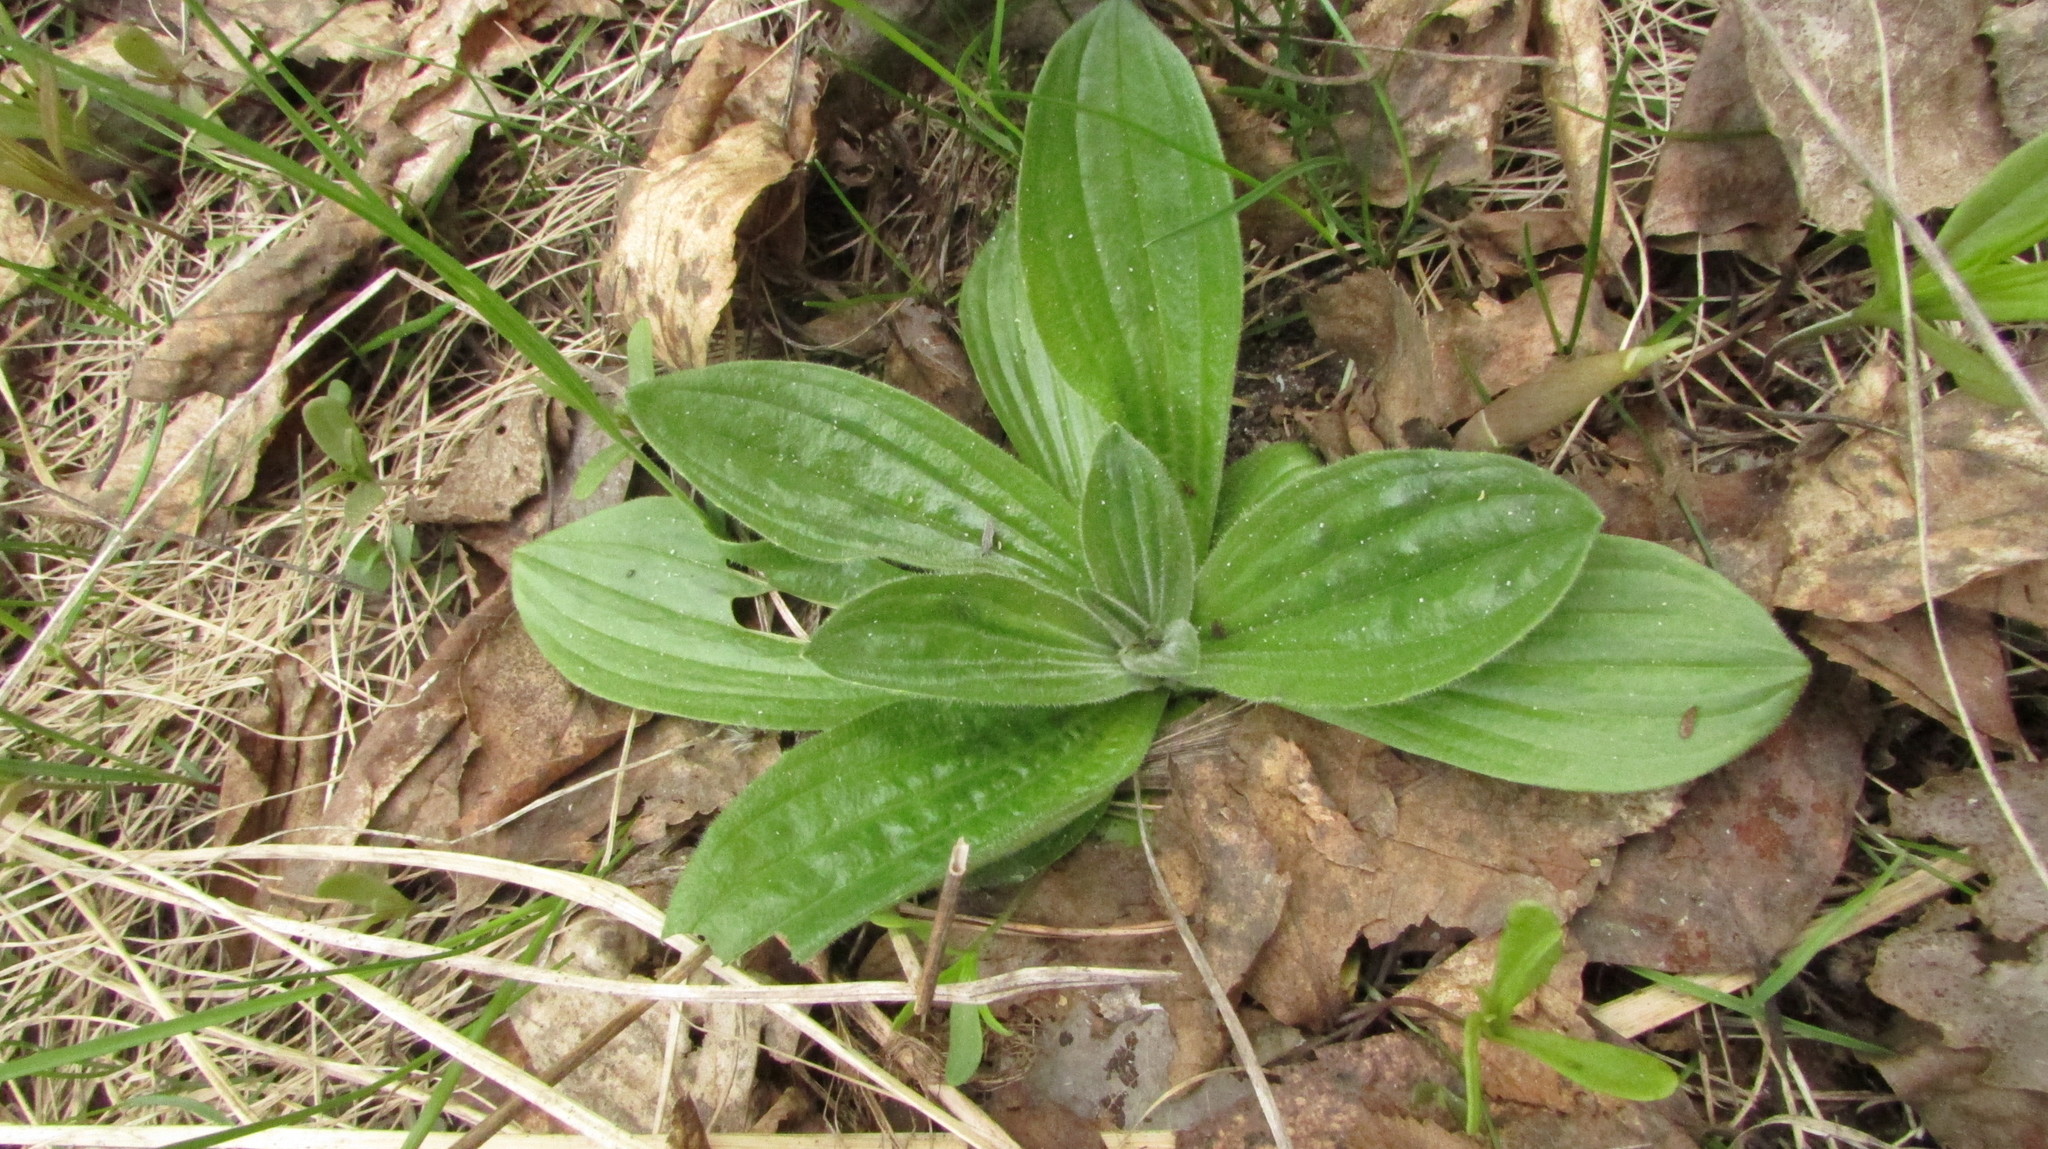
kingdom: Plantae
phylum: Tracheophyta
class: Magnoliopsida
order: Lamiales
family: Plantaginaceae
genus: Plantago
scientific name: Plantago media
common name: Hoary plantain
